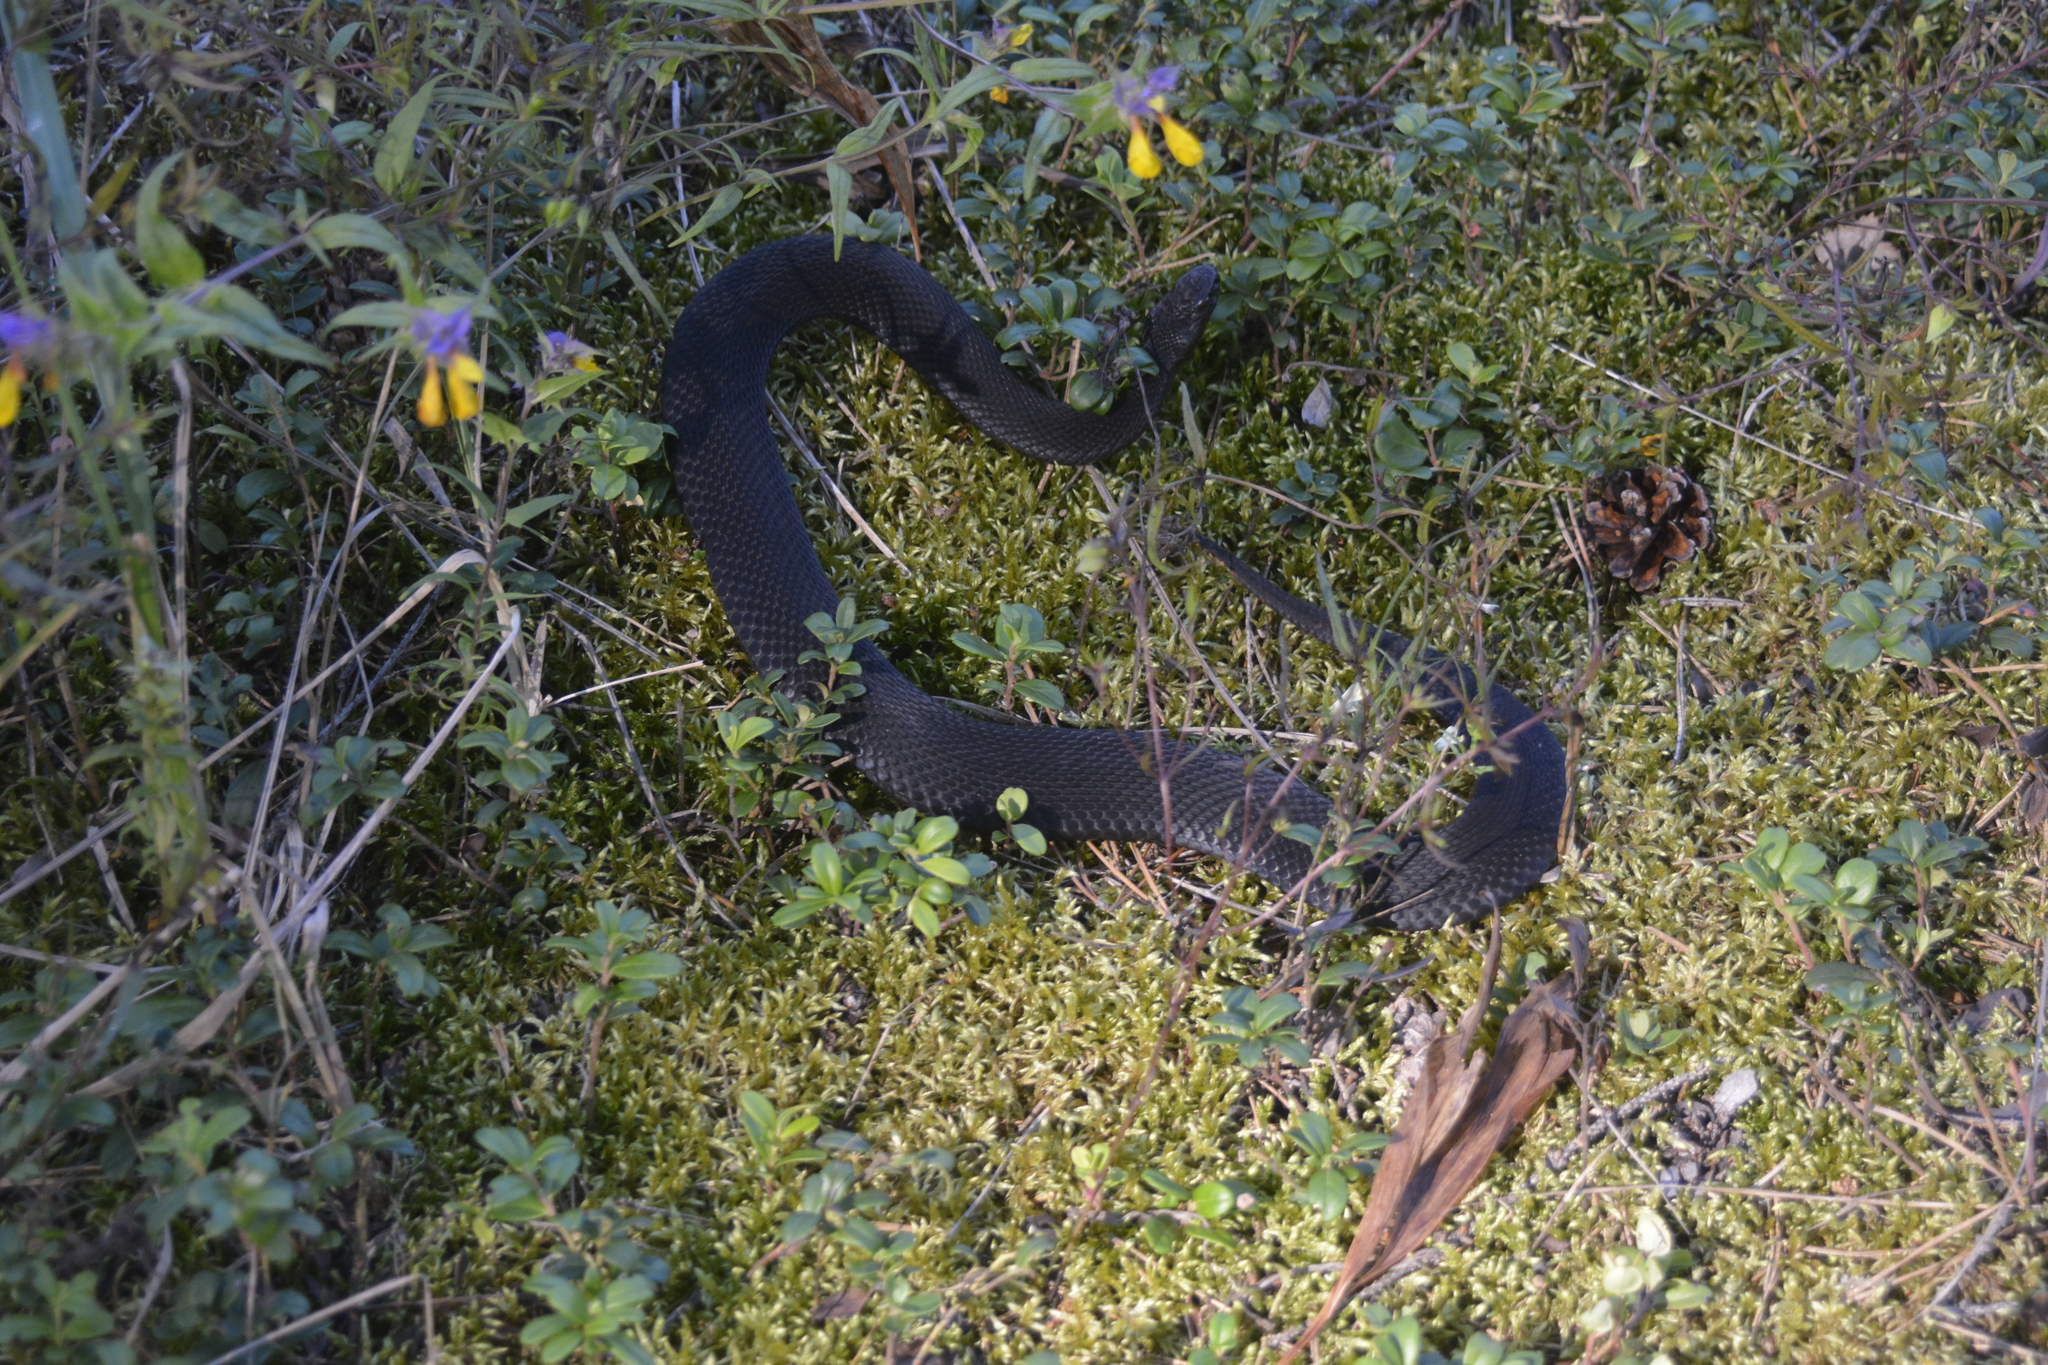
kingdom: Animalia
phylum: Chordata
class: Squamata
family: Viperidae
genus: Vipera
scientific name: Vipera berus
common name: Adder
